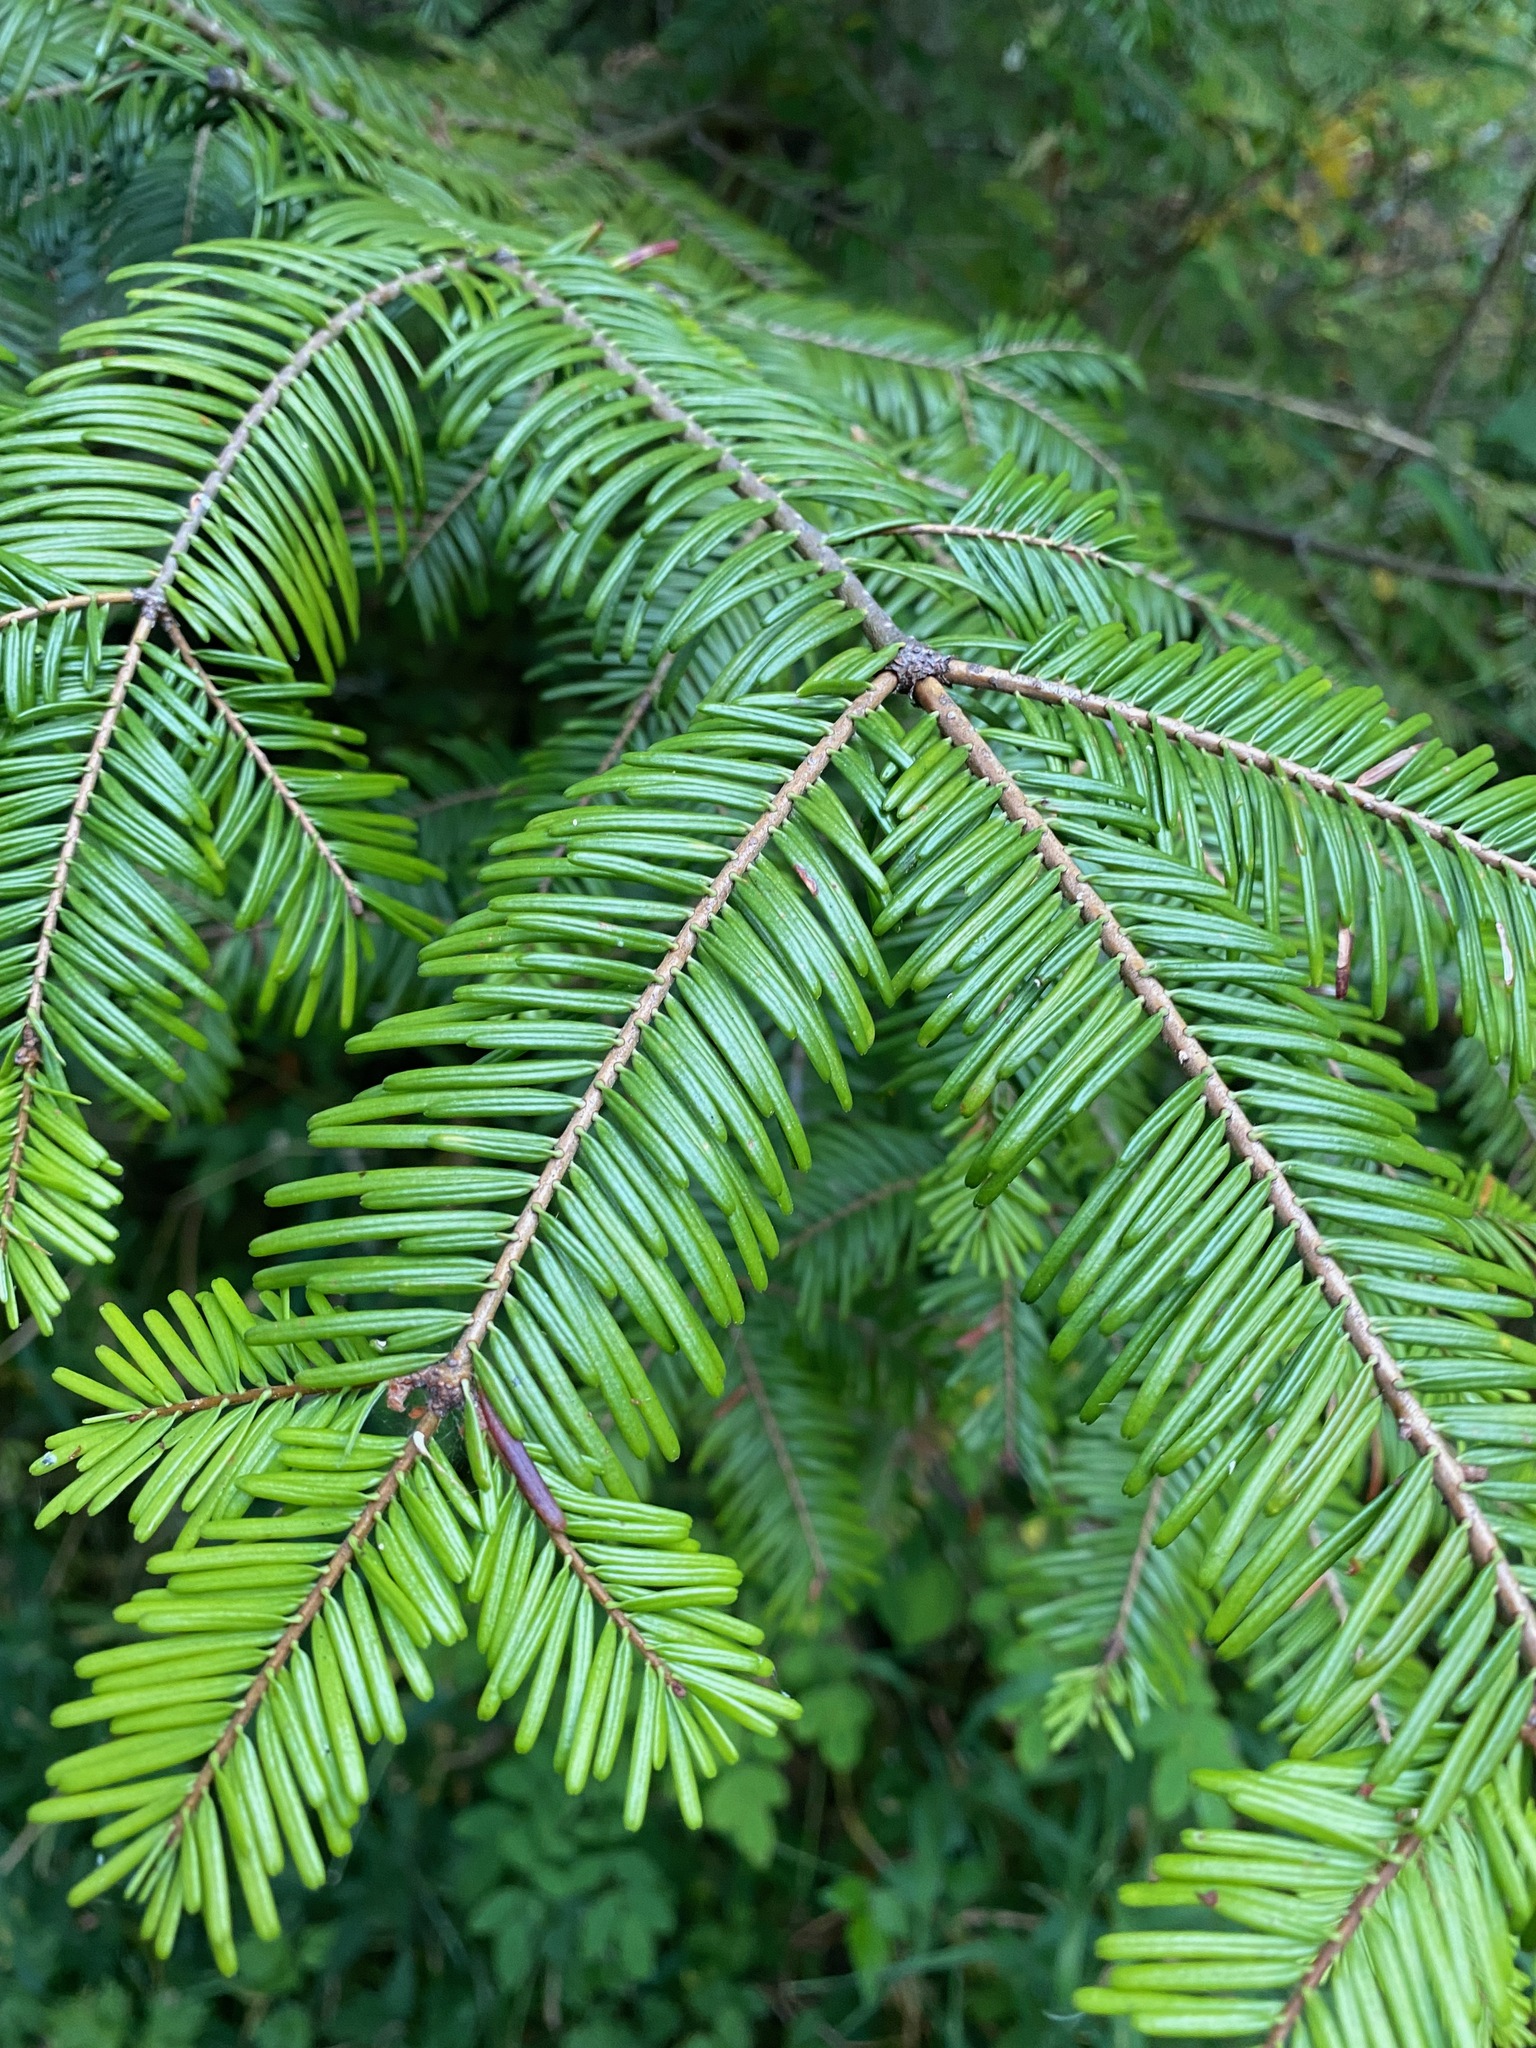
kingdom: Plantae
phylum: Tracheophyta
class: Pinopsida
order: Pinales
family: Pinaceae
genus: Abies
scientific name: Abies grandis
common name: Giant fir
